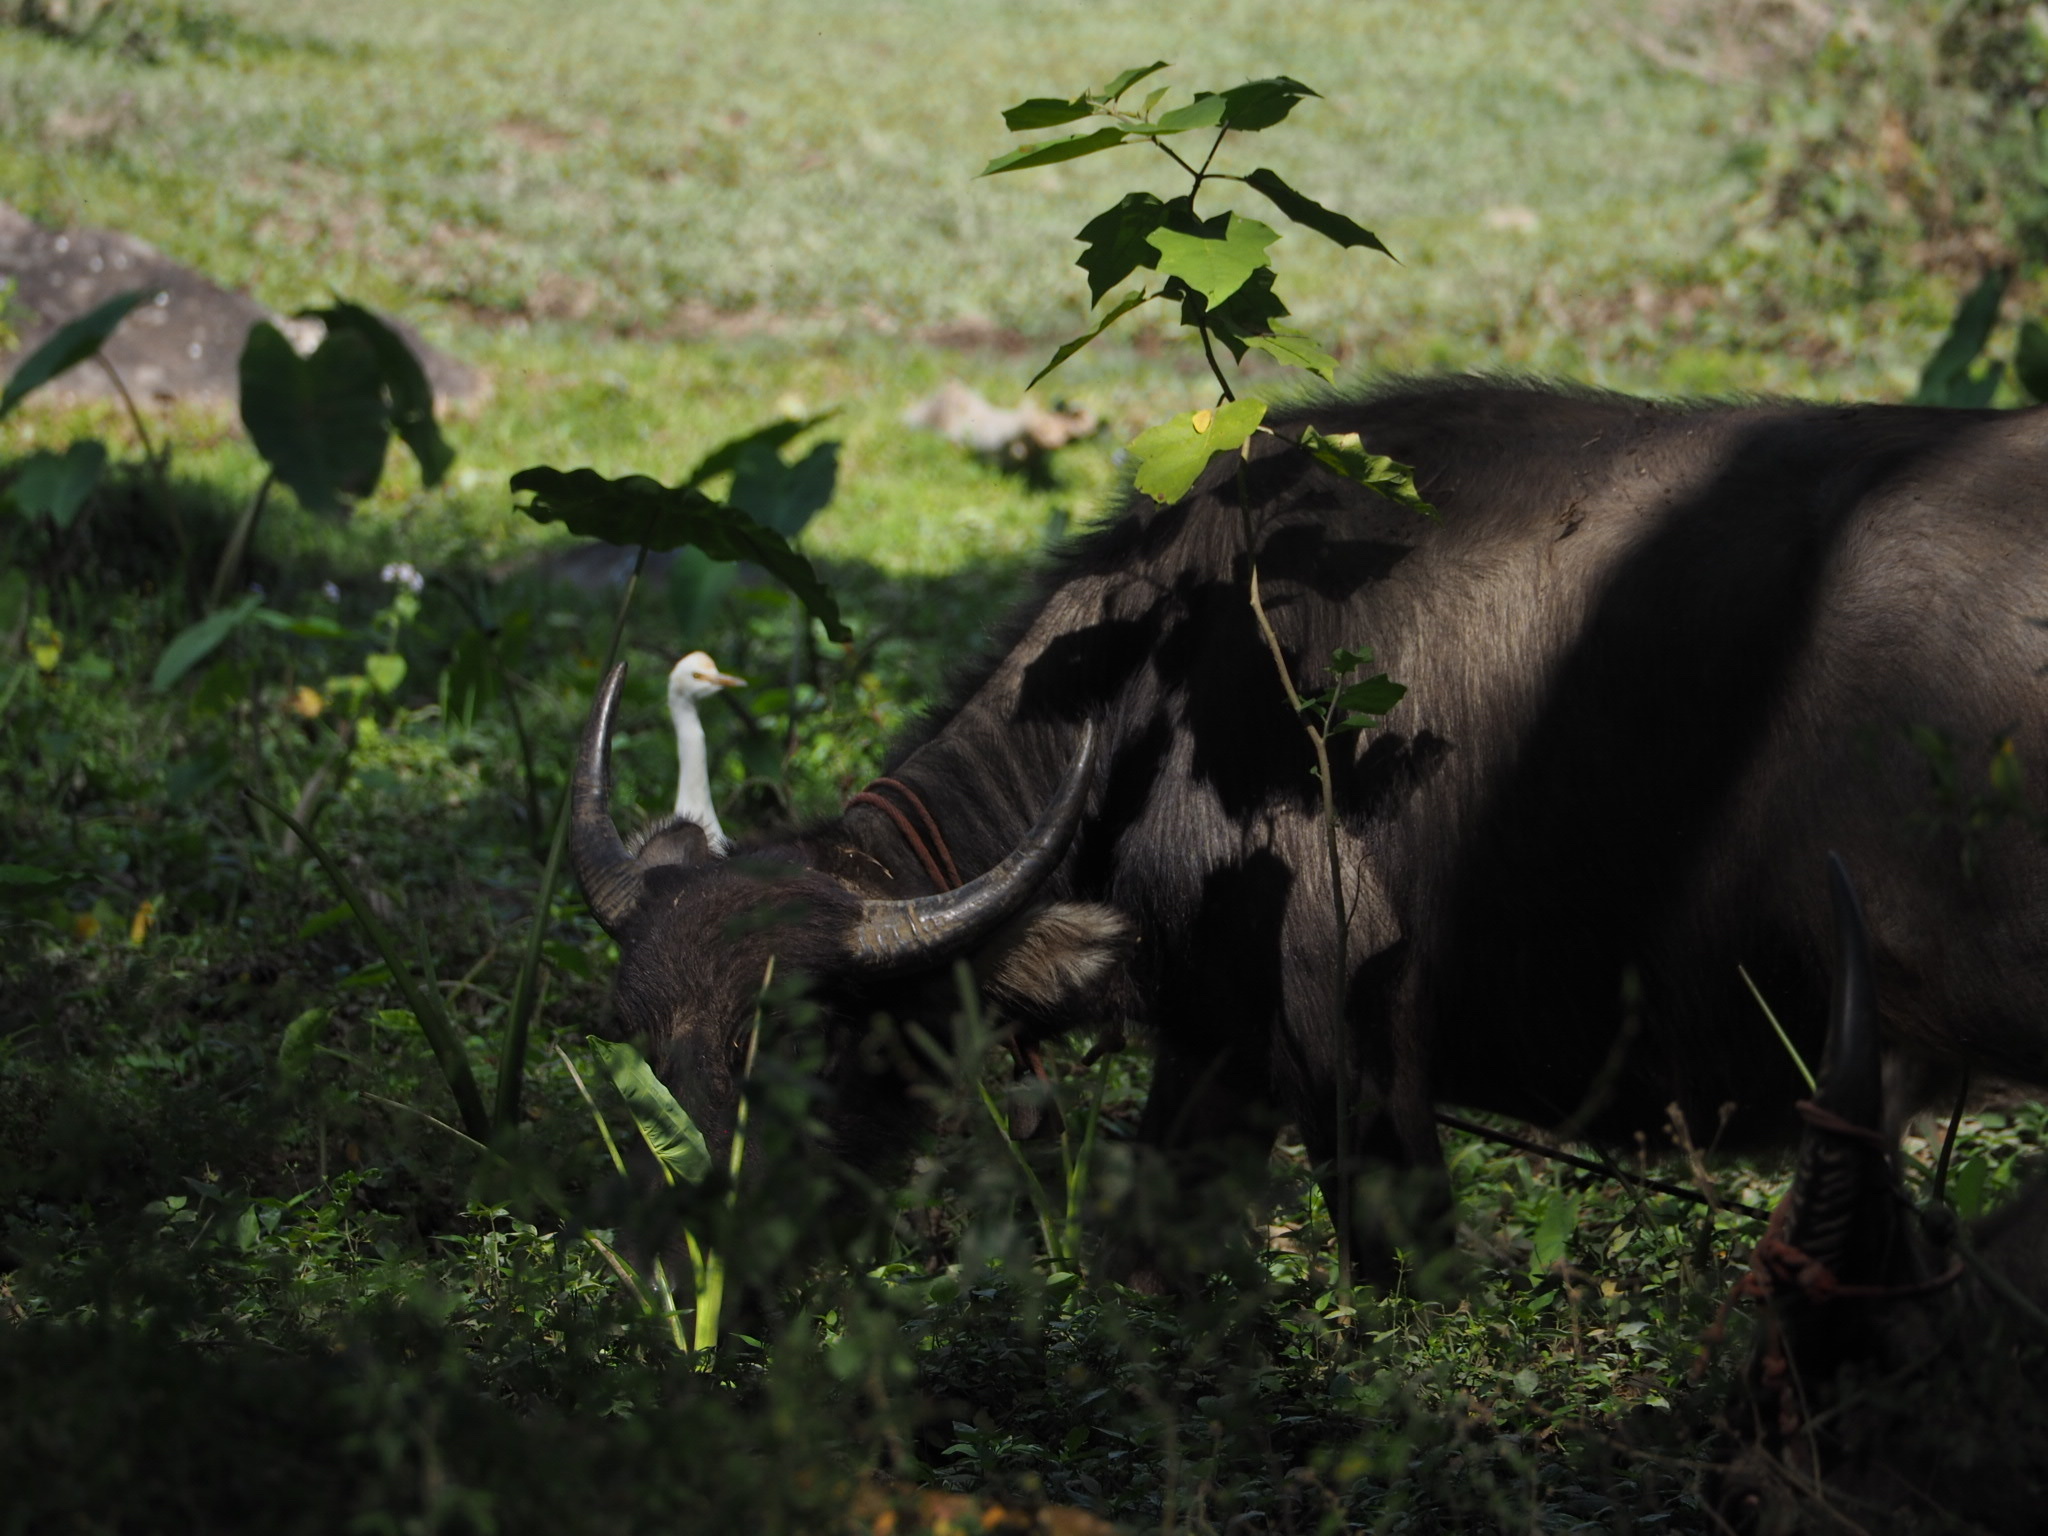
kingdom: Animalia
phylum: Chordata
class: Aves
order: Pelecaniformes
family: Ardeidae
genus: Bubulcus
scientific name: Bubulcus coromandus
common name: Eastern cattle egret
